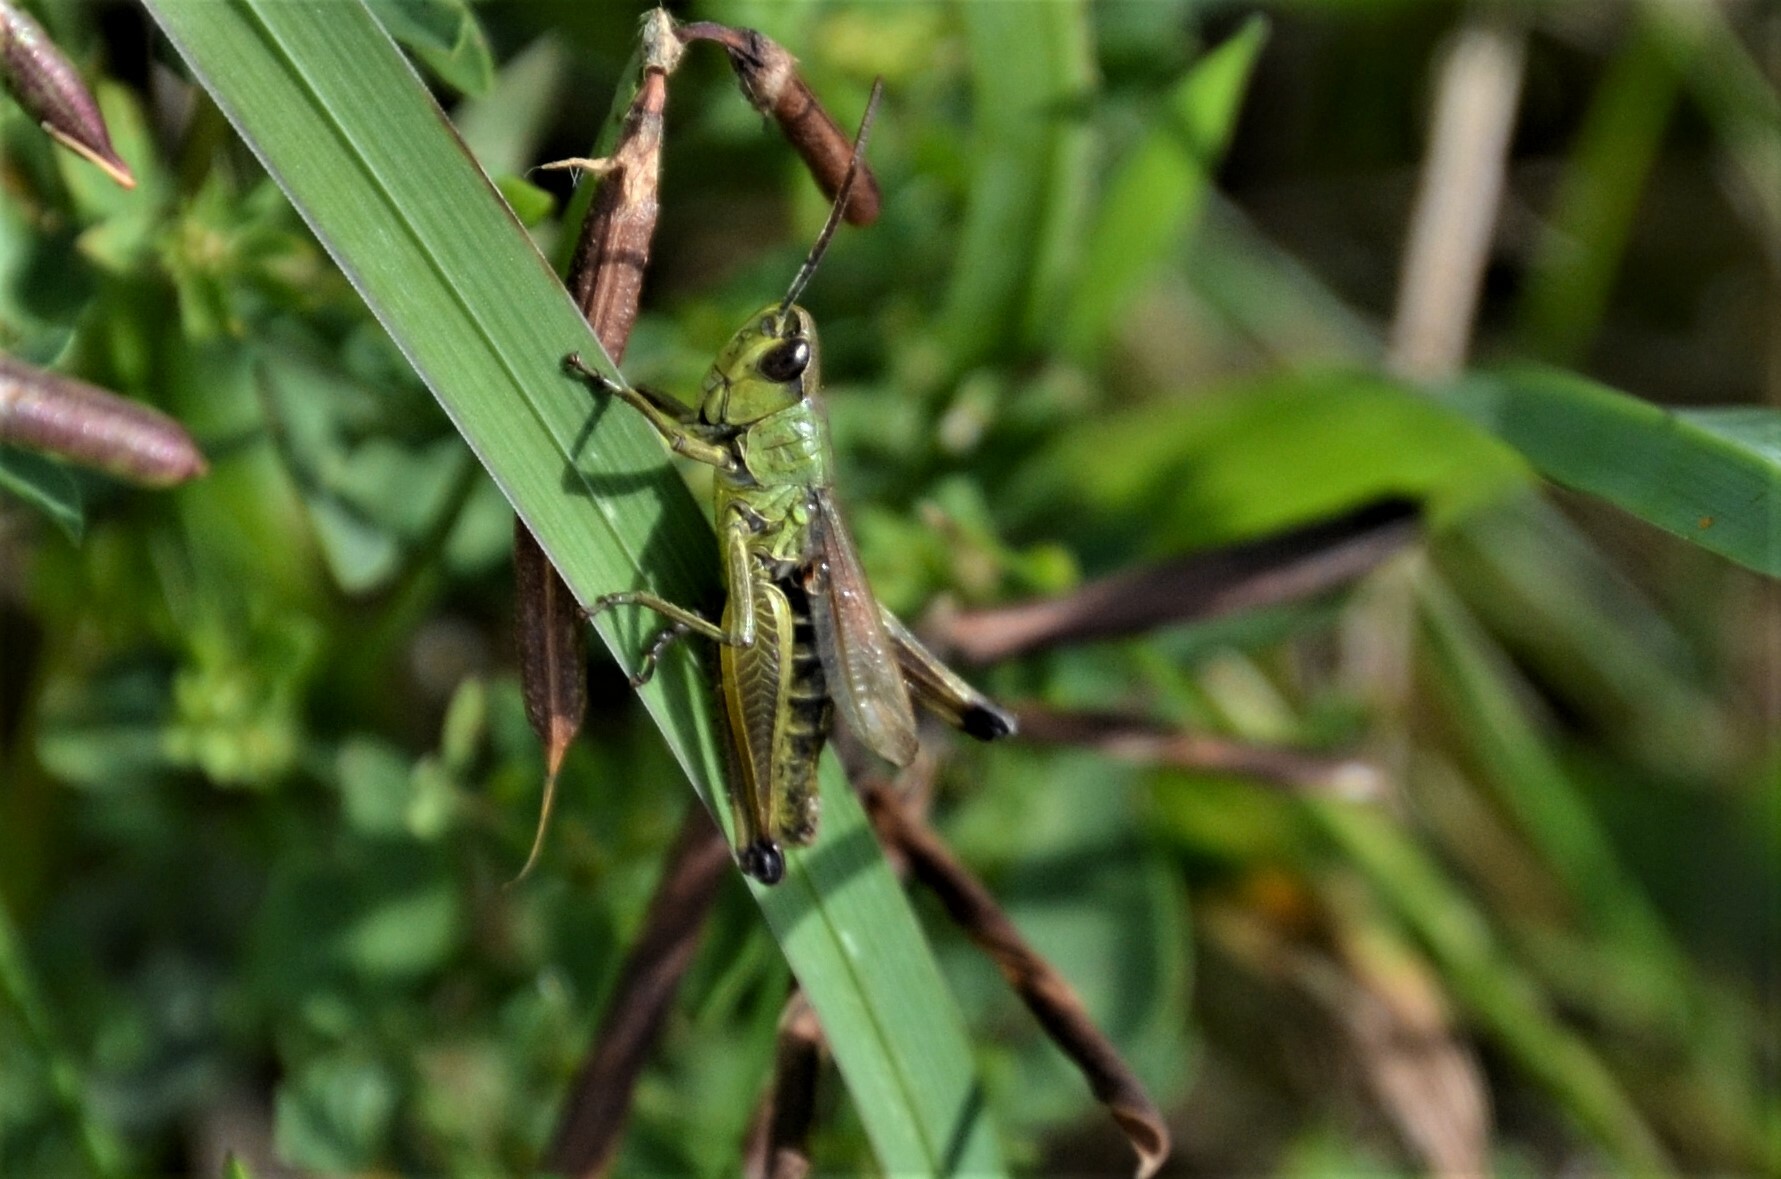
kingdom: Animalia
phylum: Arthropoda
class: Insecta
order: Orthoptera
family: Acrididae
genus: Pseudochorthippus
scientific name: Pseudochorthippus parallelus
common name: Meadow grasshopper
